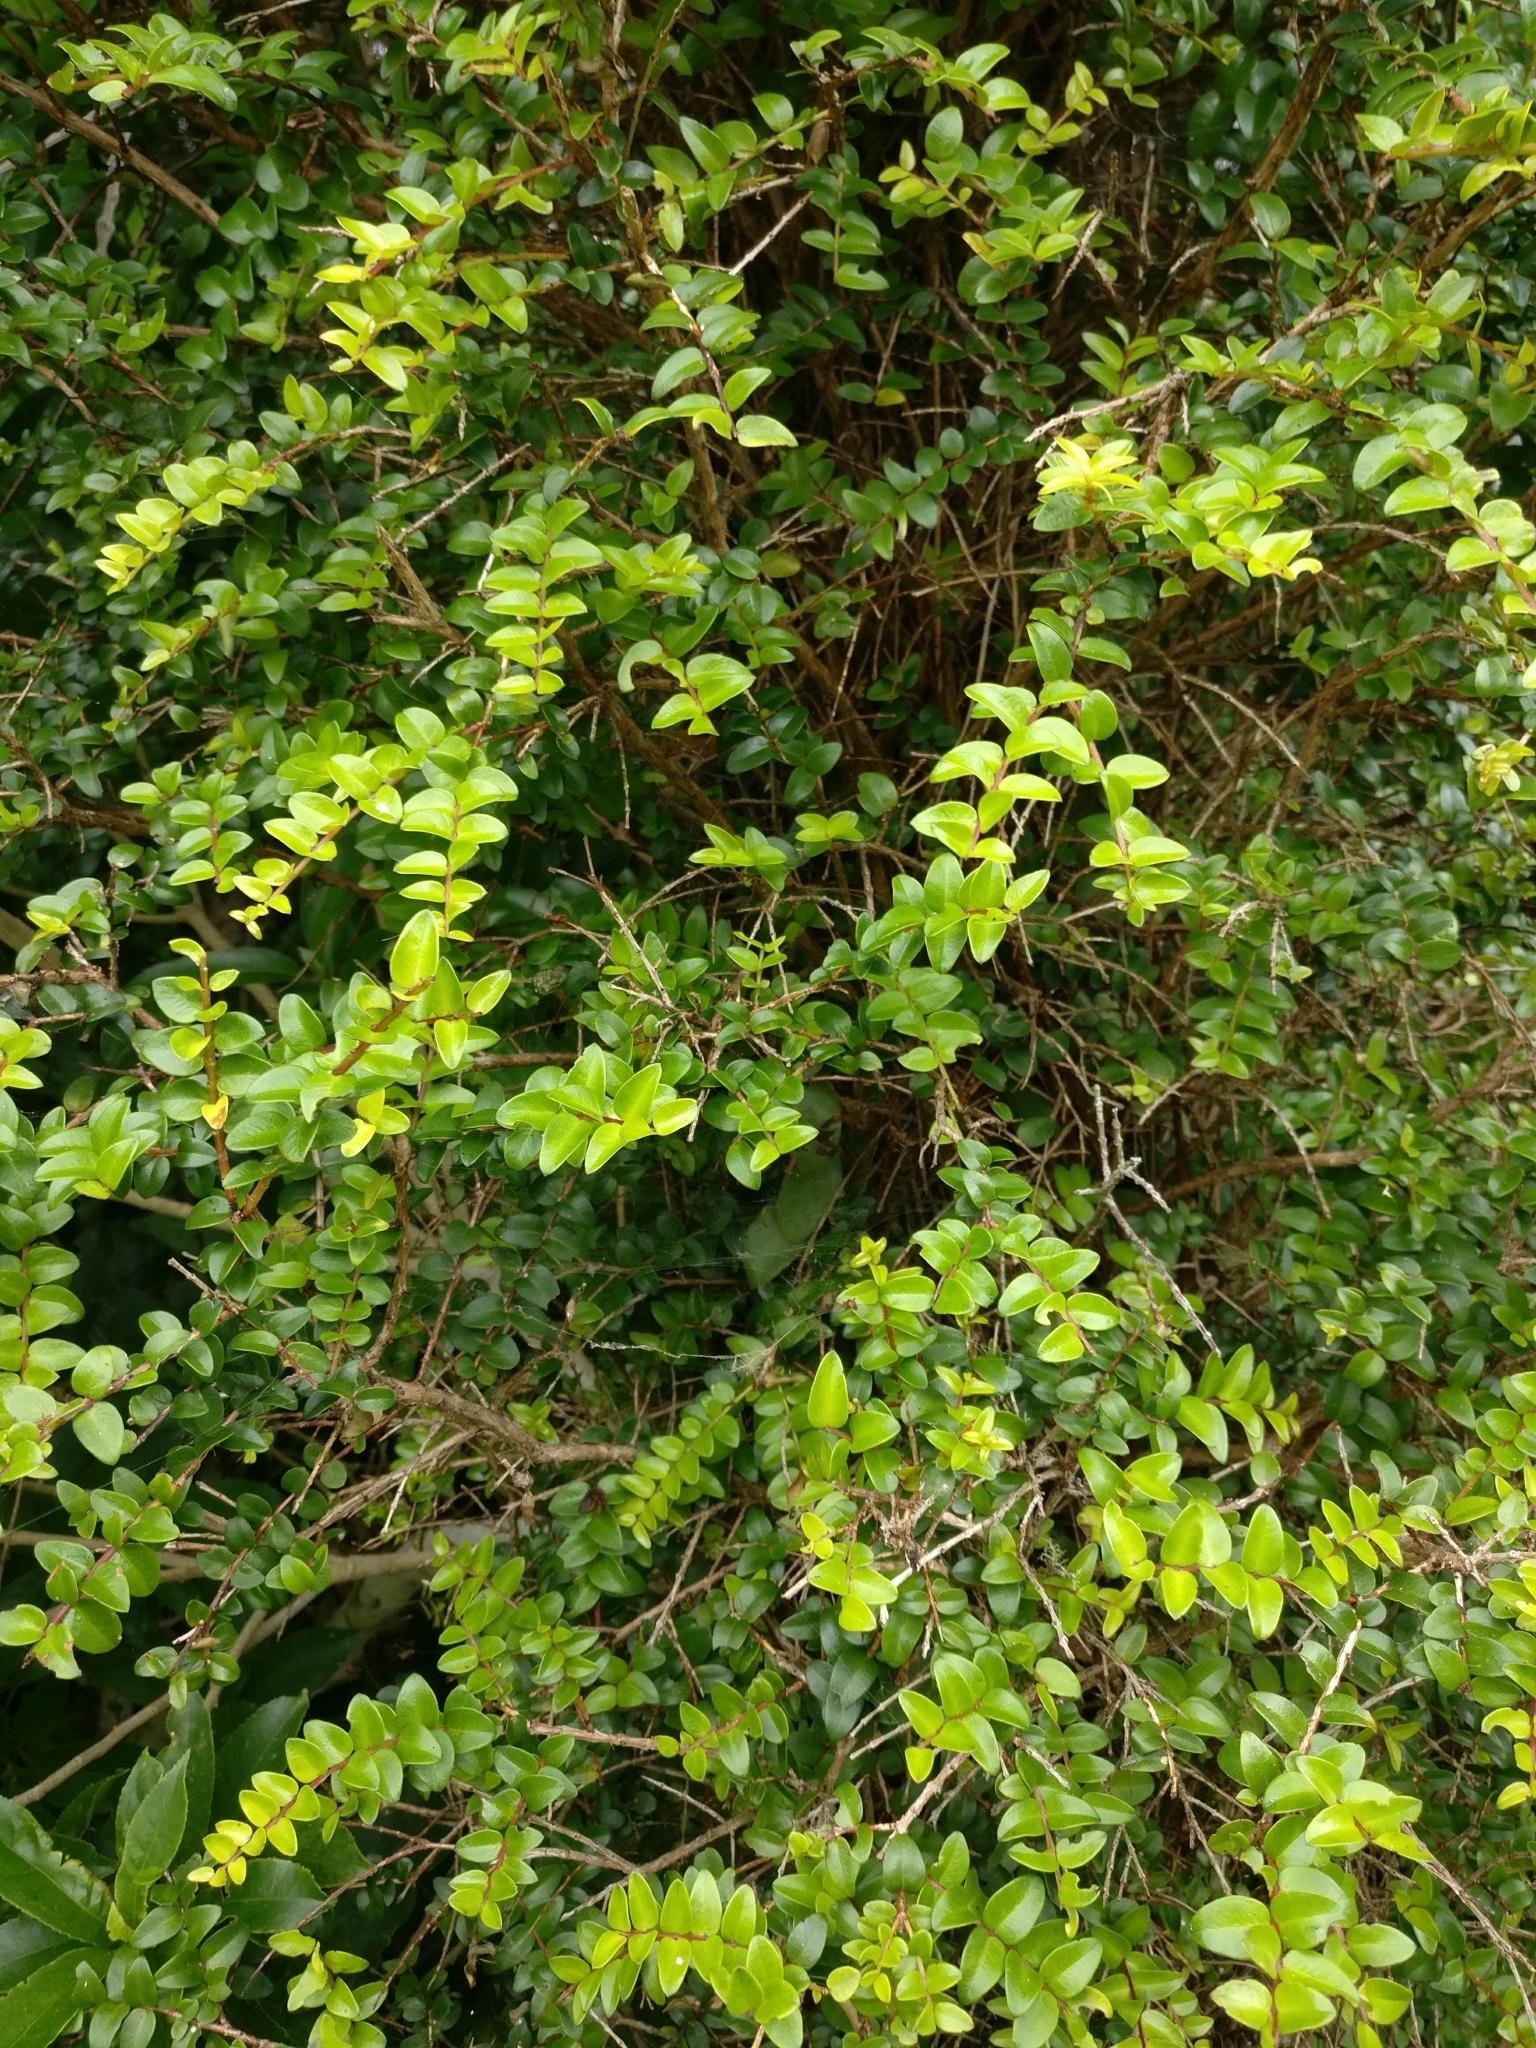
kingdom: Plantae
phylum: Tracheophyta
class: Magnoliopsida
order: Myrtales
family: Myrtaceae
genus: Metrosideros
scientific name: Metrosideros diffusa
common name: Small ratavine
